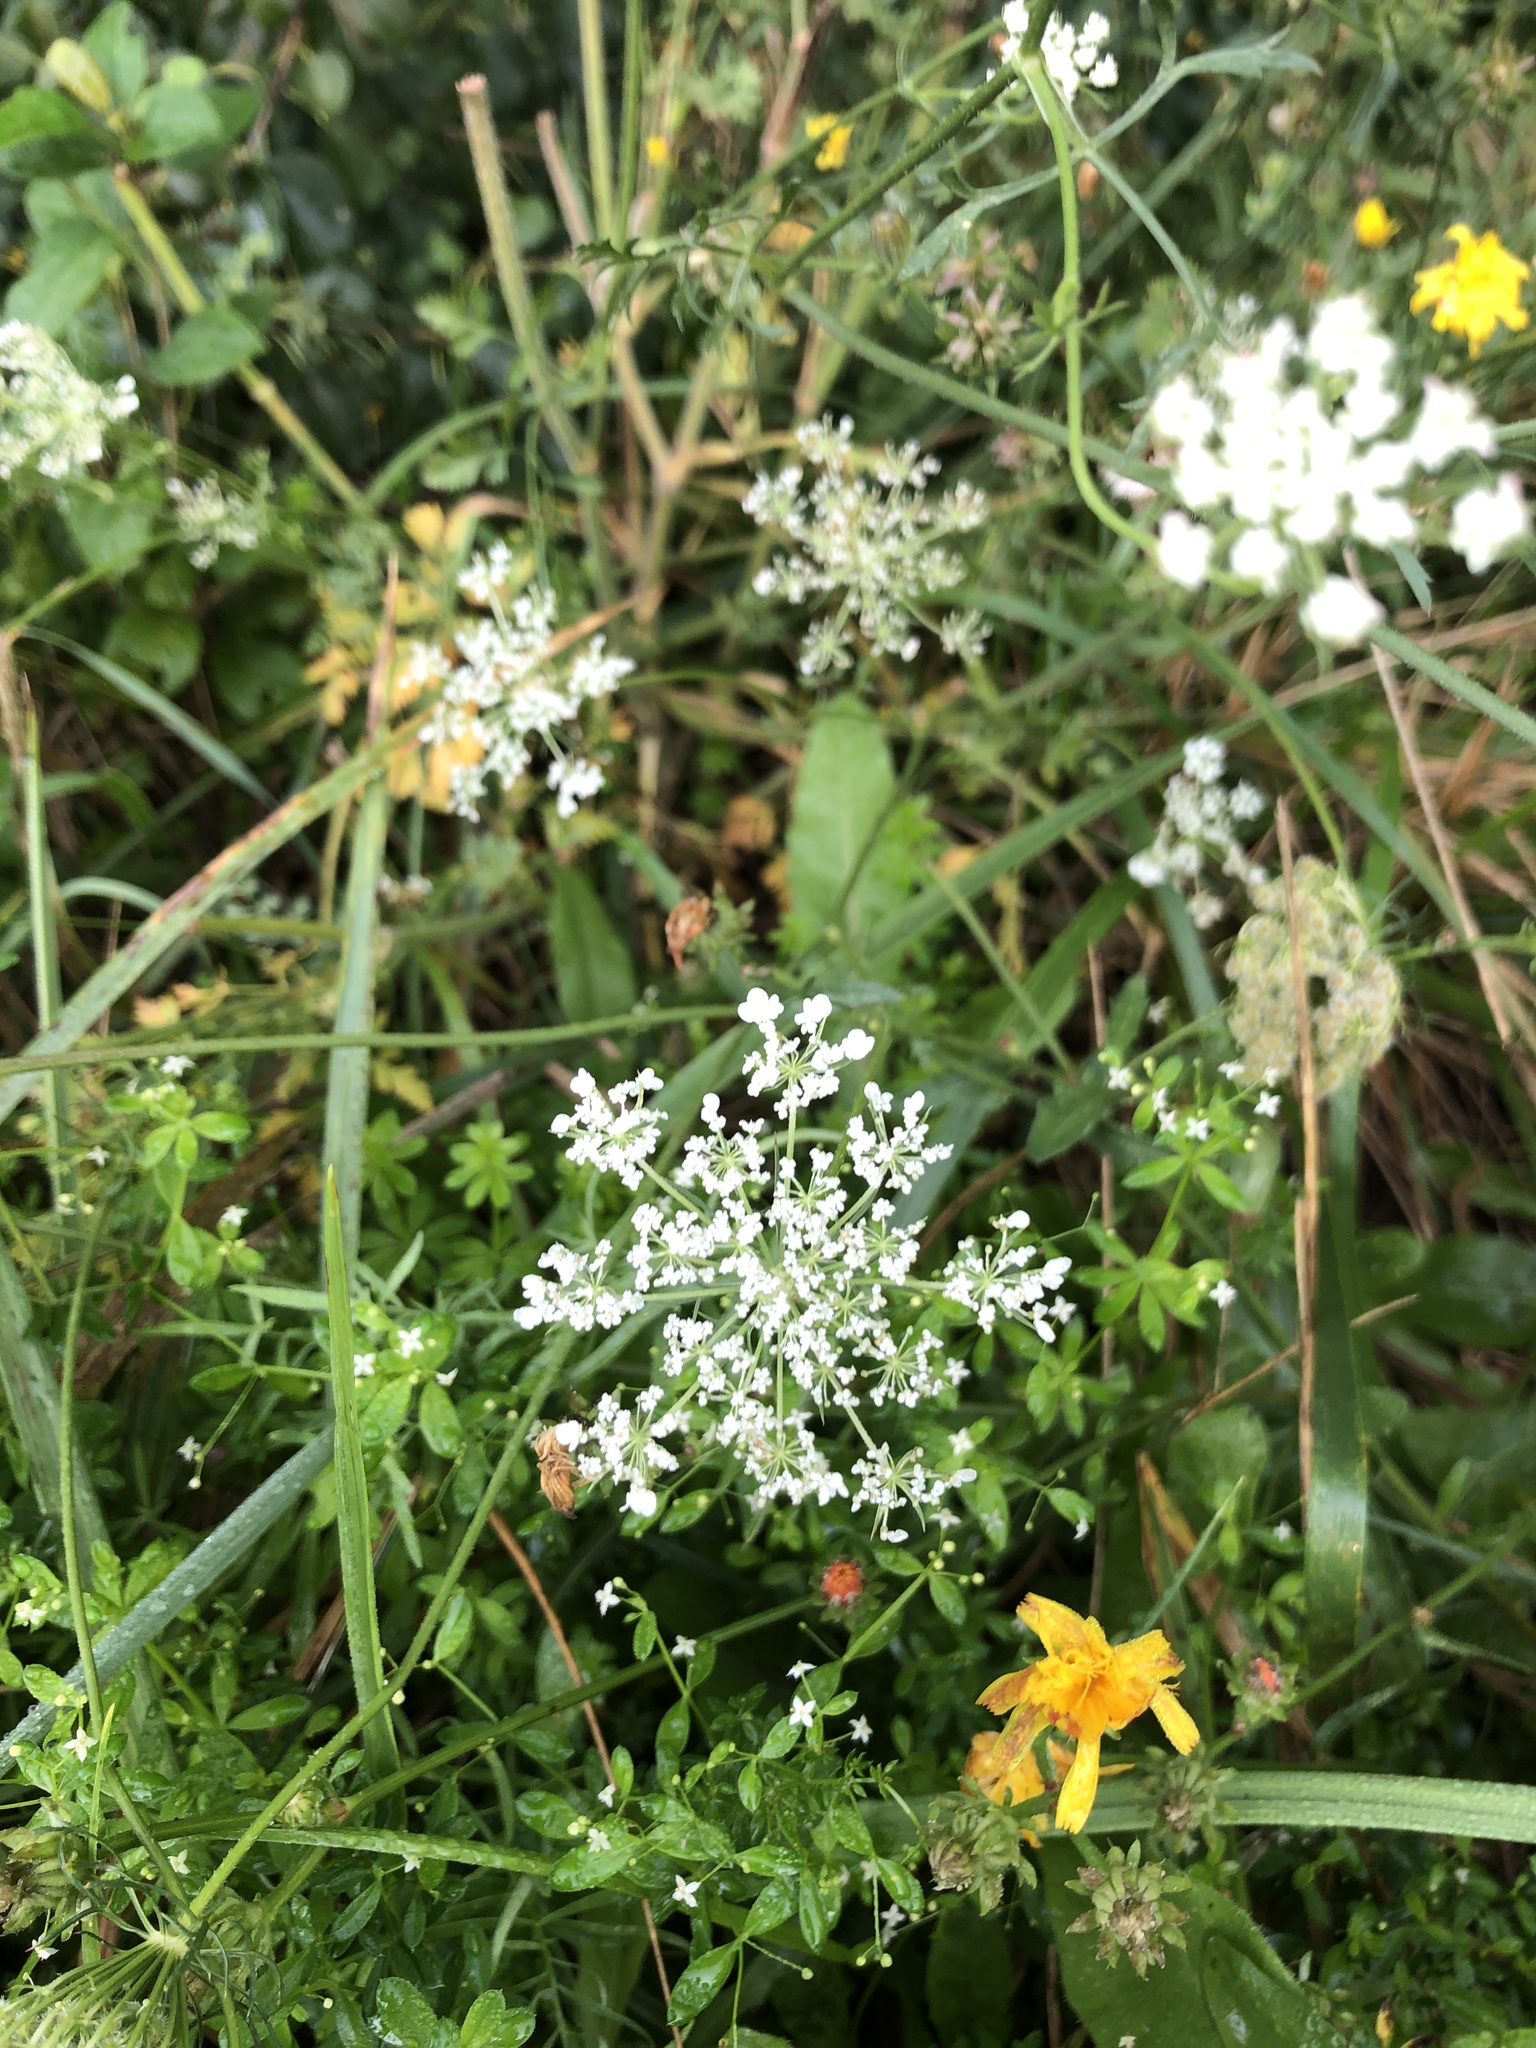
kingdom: Plantae
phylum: Tracheophyta
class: Magnoliopsida
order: Apiales
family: Apiaceae
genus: Daucus
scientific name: Daucus carota
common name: Wild carrot
